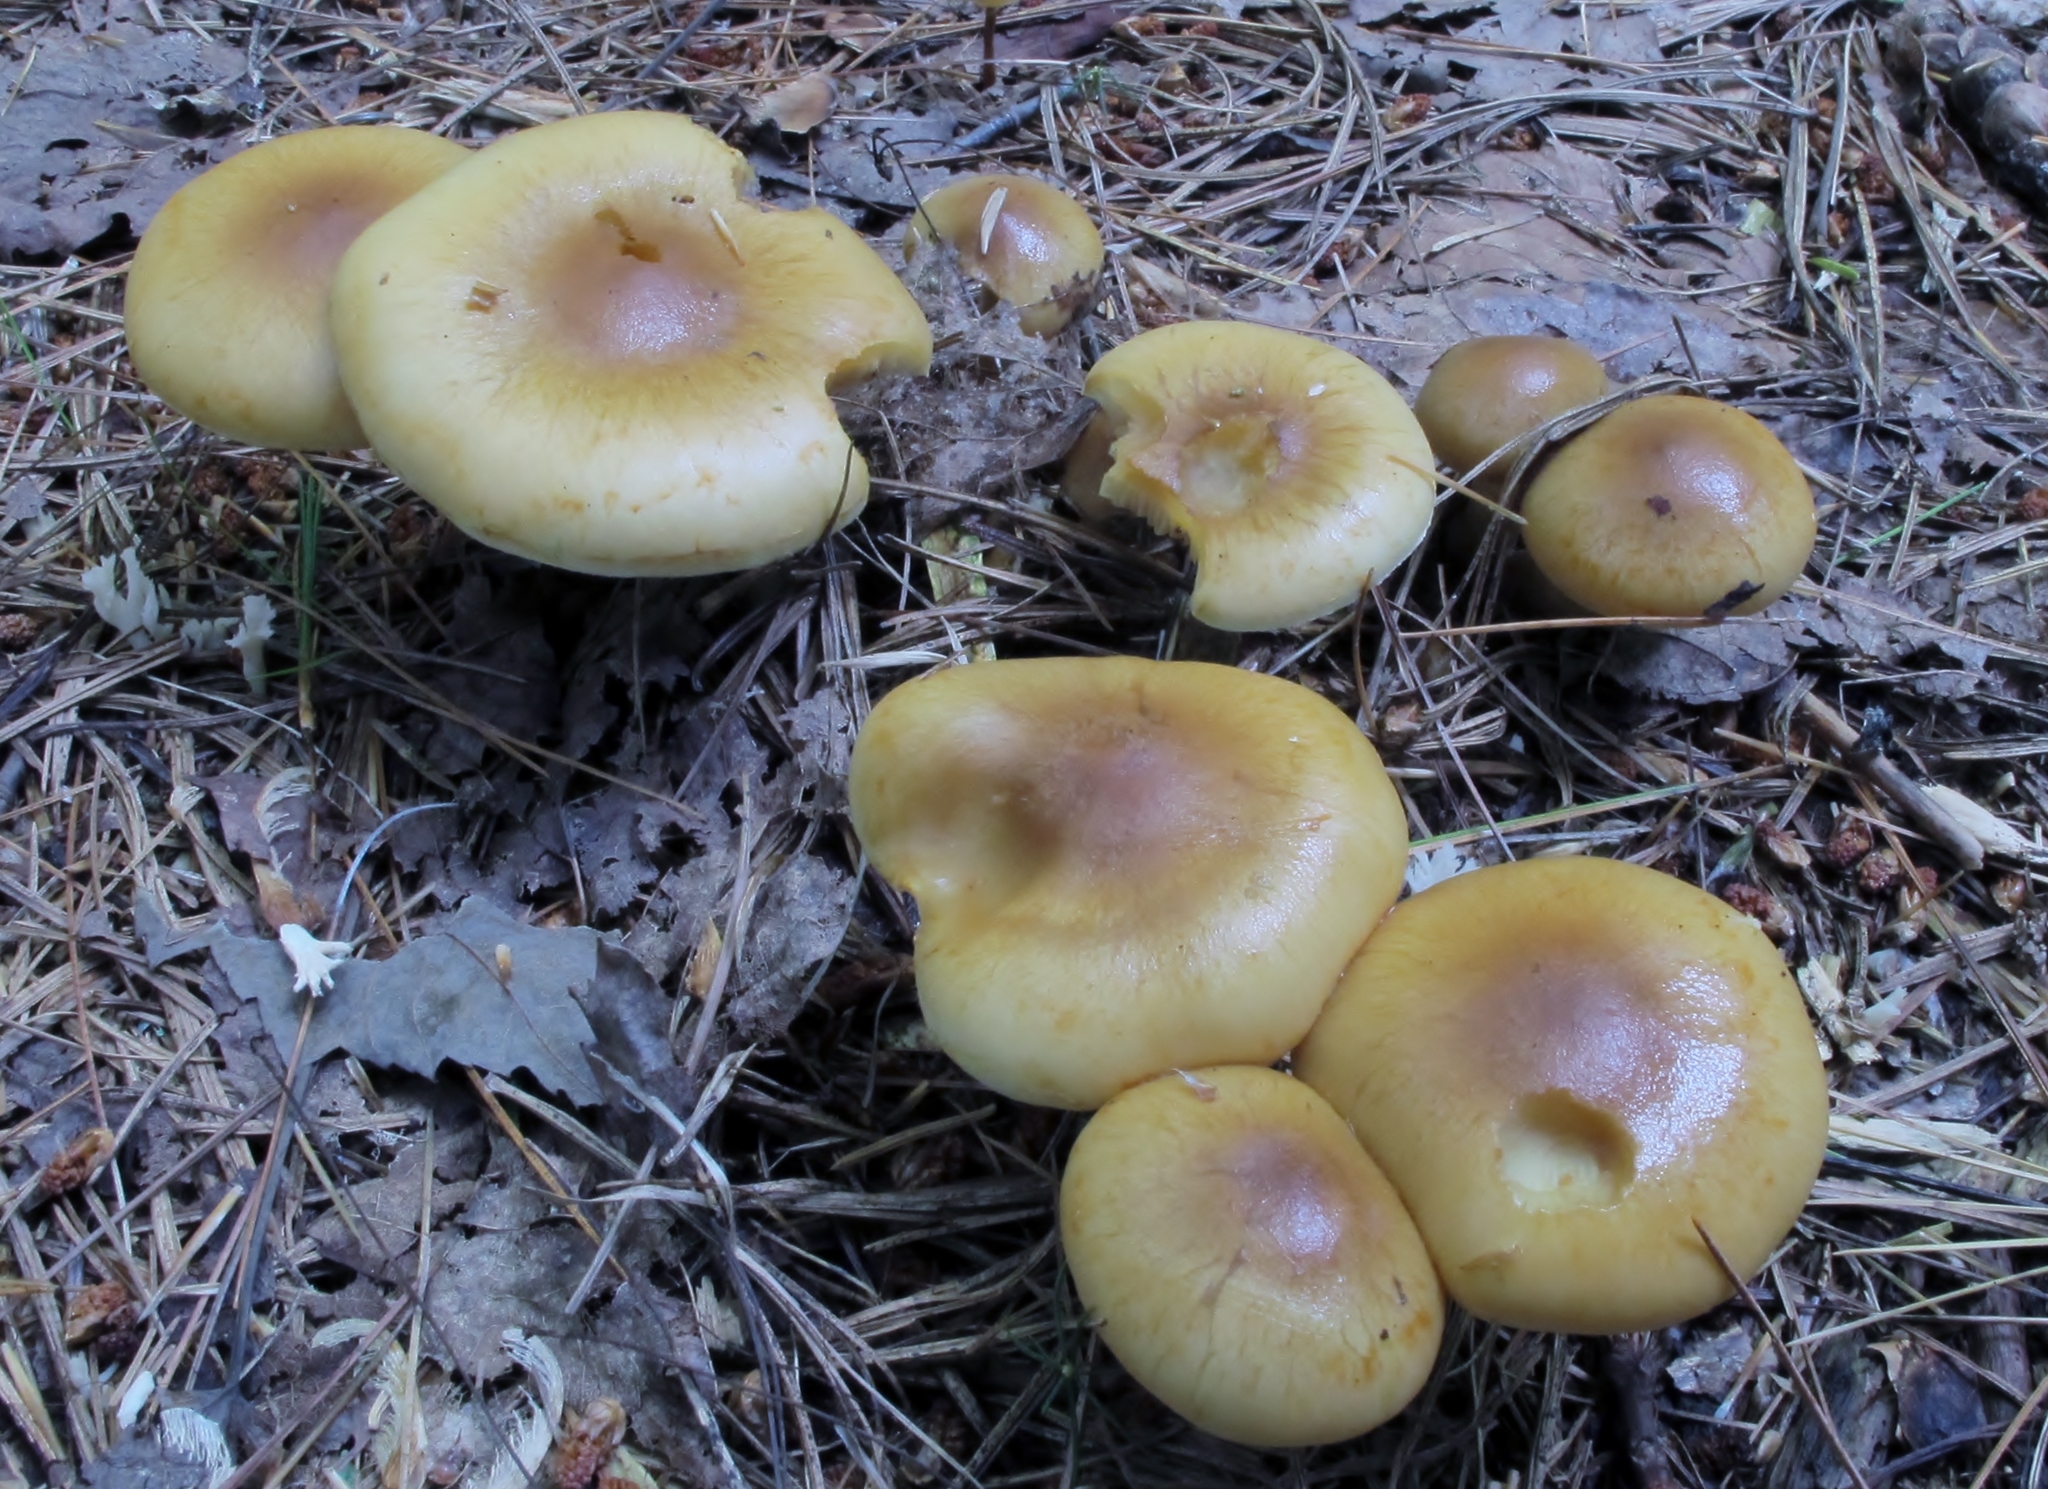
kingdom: Fungi
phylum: Basidiomycota
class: Agaricomycetes
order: Agaricales
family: Strophariaceae
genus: Pholiota
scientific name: Pholiota spumosa
